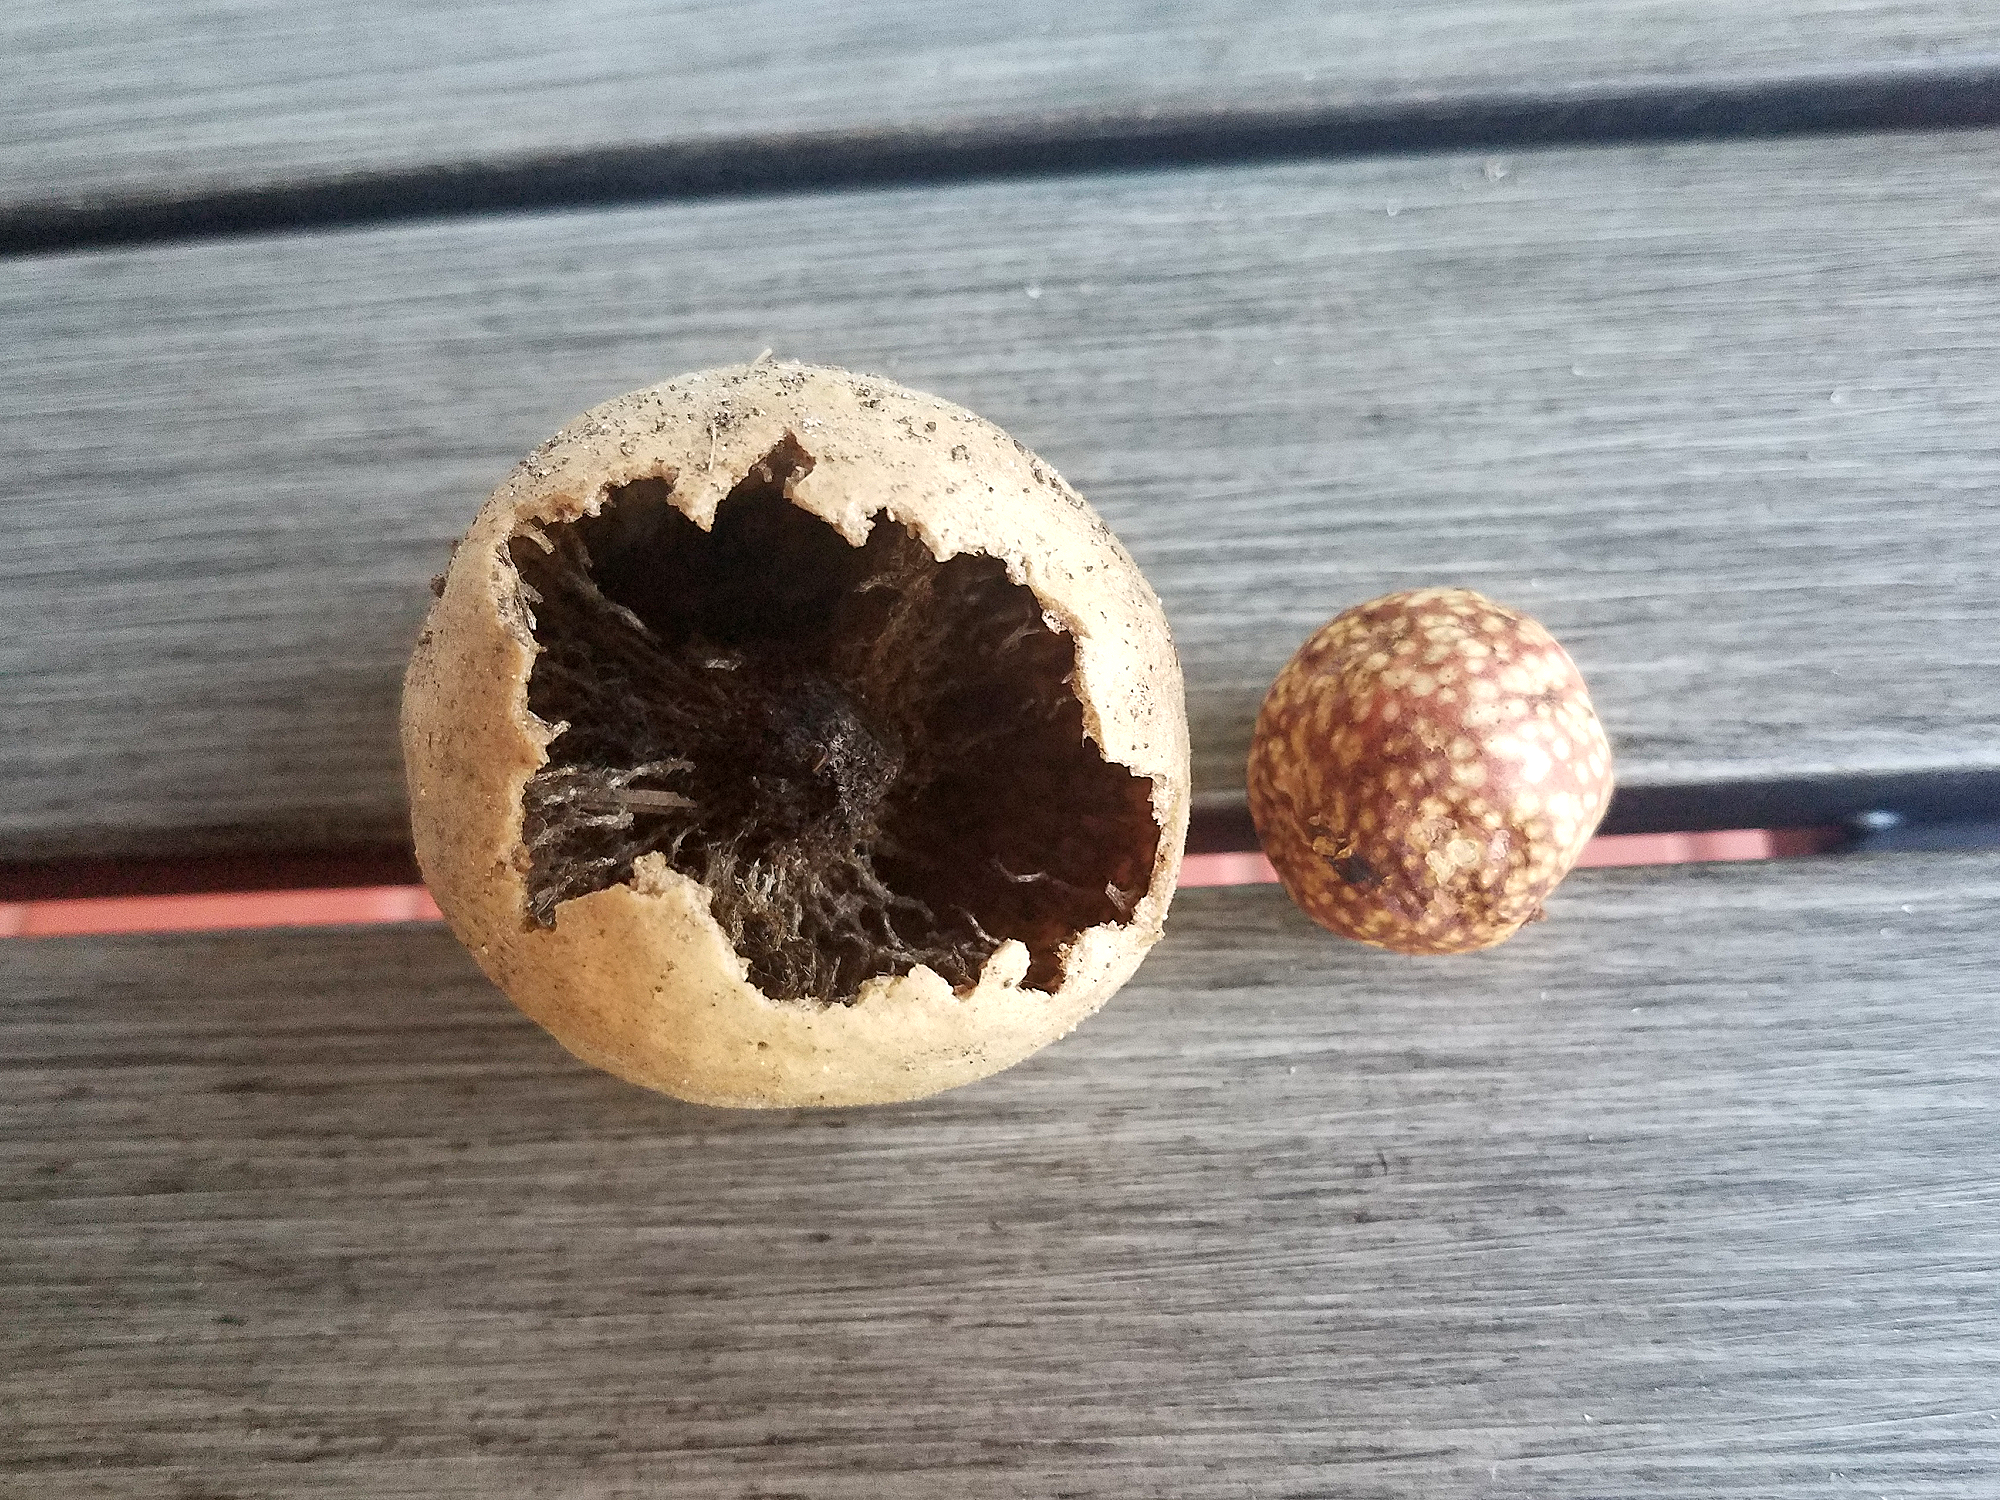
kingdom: Animalia
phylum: Arthropoda
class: Insecta
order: Hymenoptera
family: Cynipidae
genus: Amphibolips
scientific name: Amphibolips
